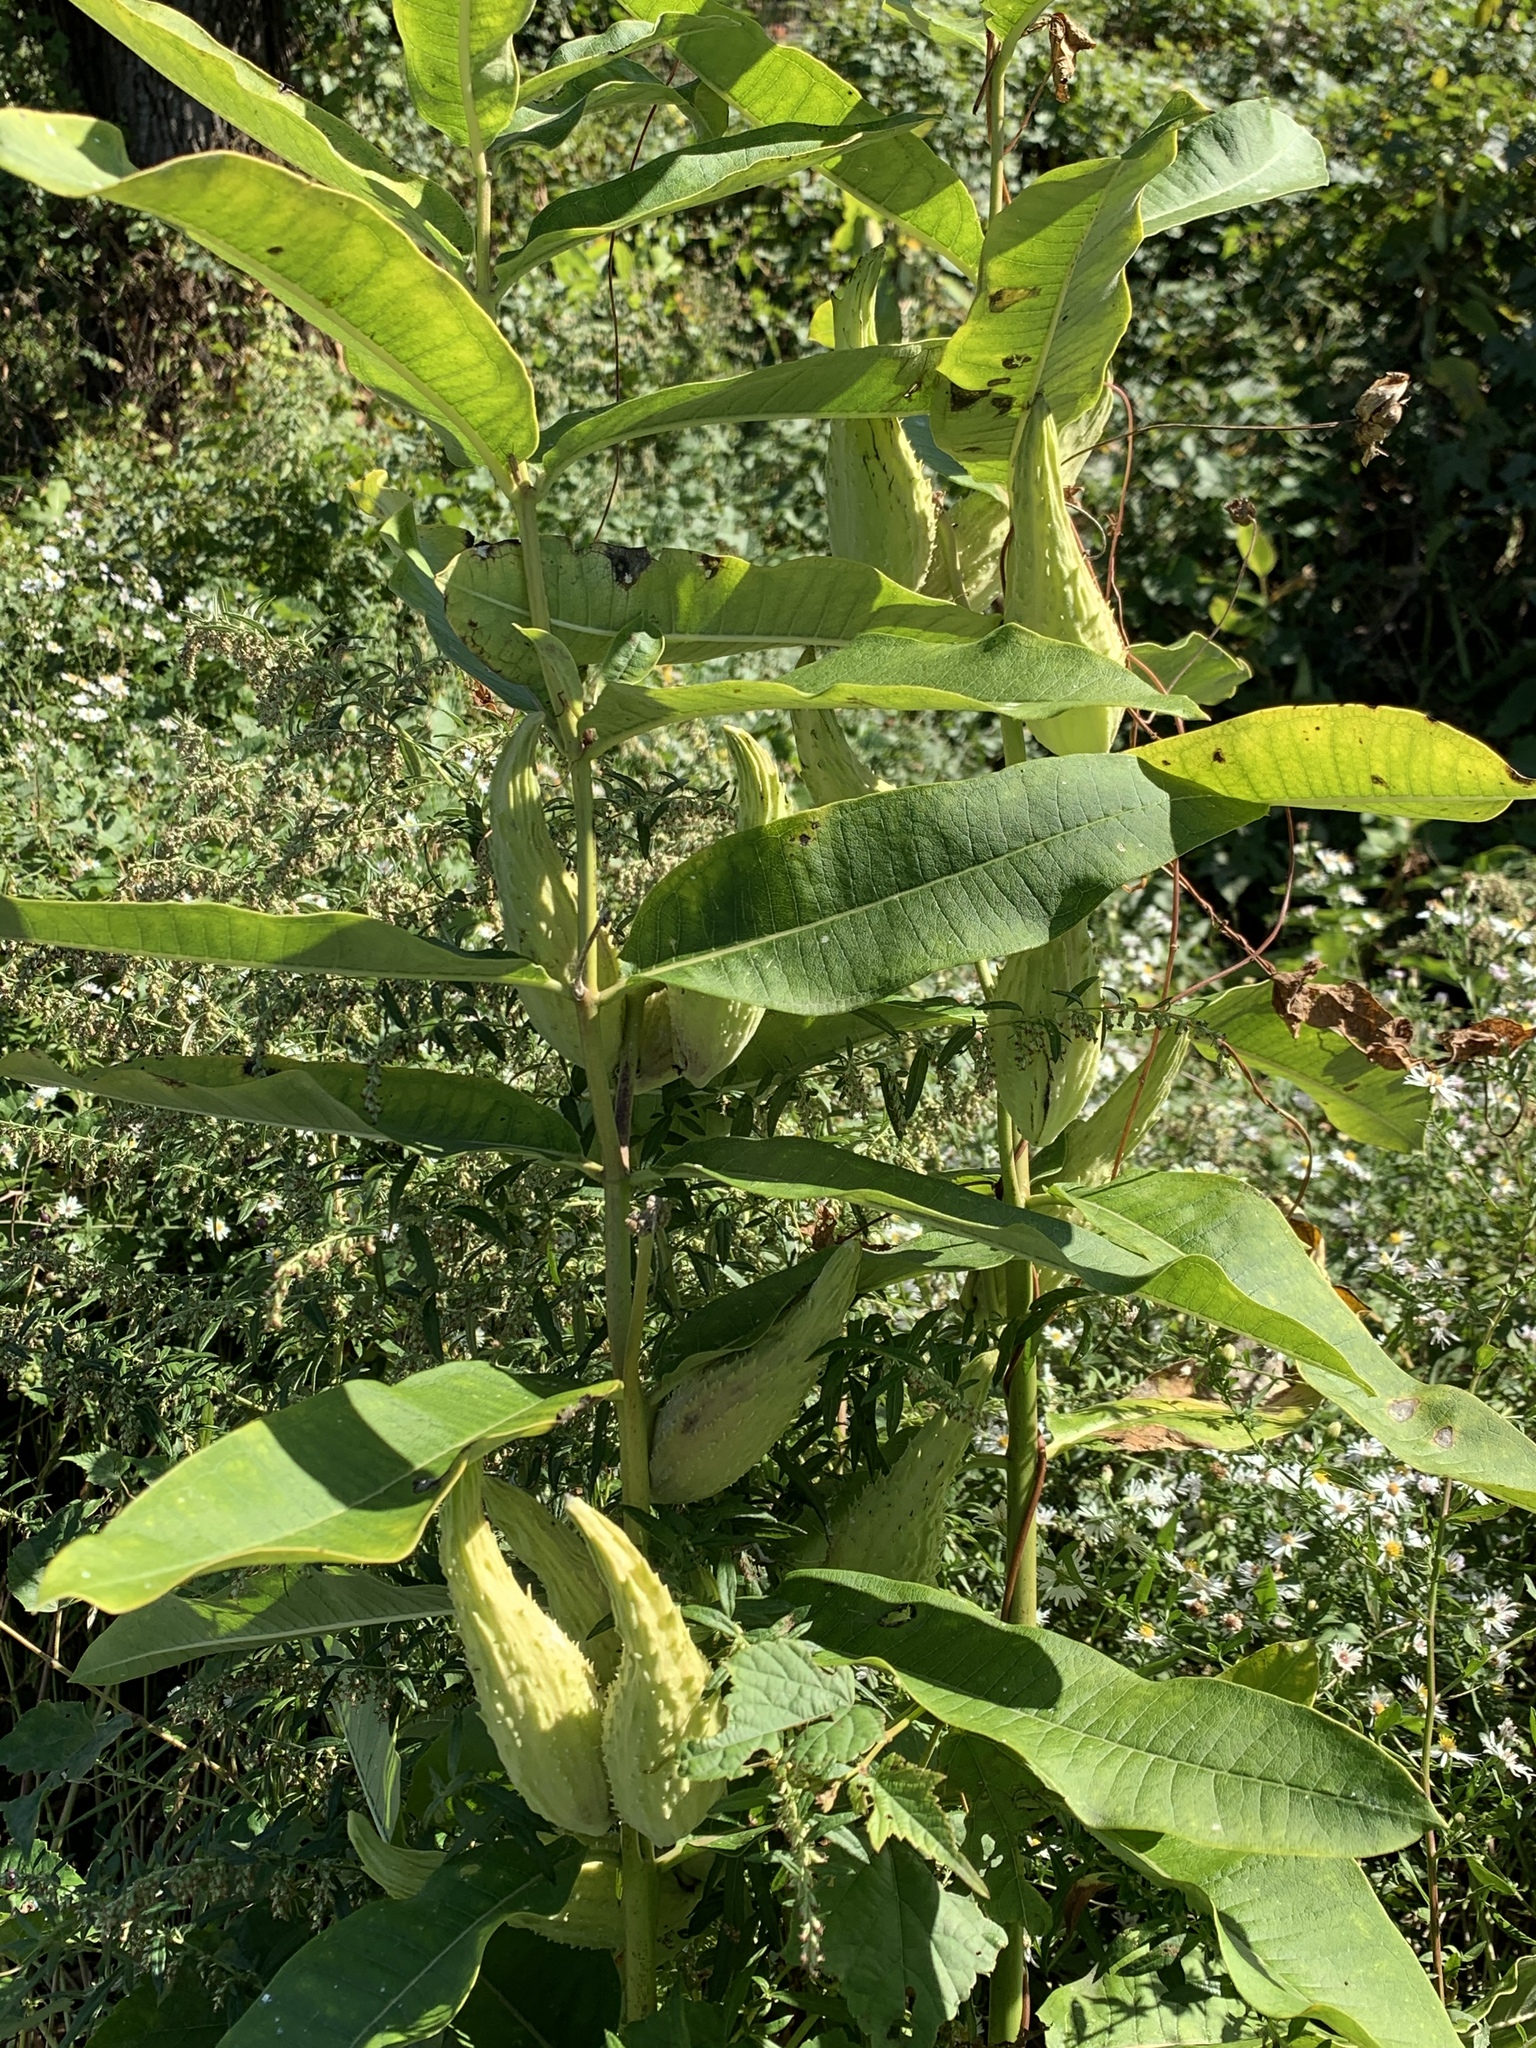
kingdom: Plantae
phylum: Tracheophyta
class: Magnoliopsida
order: Gentianales
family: Apocynaceae
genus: Asclepias
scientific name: Asclepias syriaca
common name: Common milkweed
